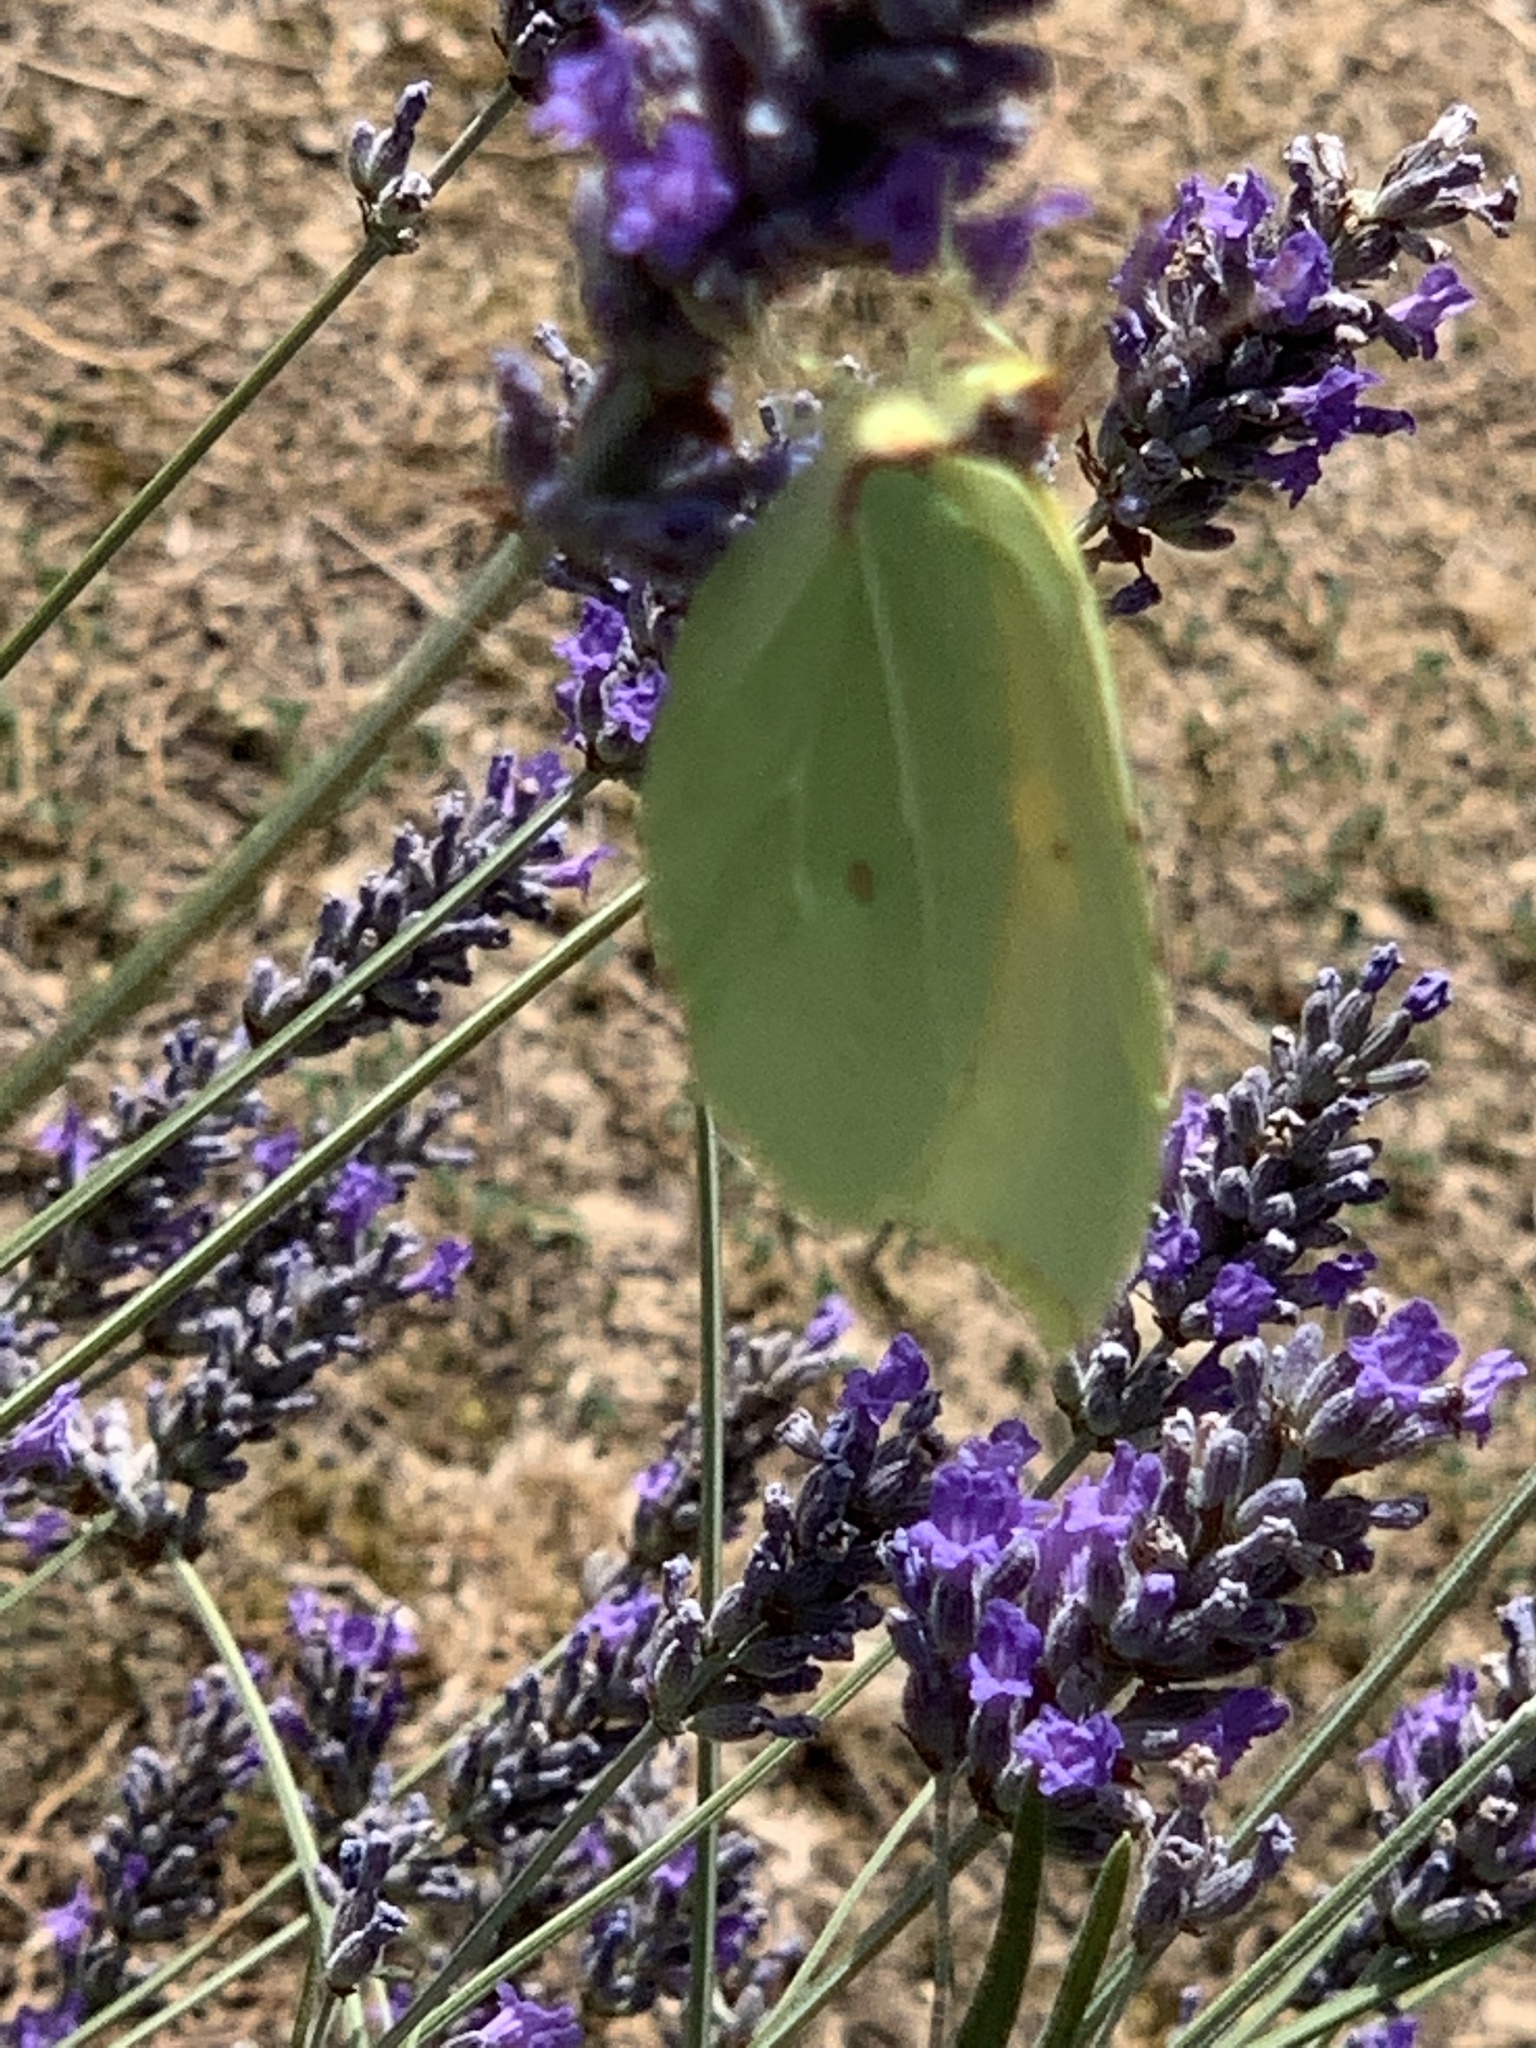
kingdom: Animalia
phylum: Arthropoda
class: Insecta
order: Lepidoptera
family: Pieridae
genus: Gonepteryx
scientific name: Gonepteryx cleopatra
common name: Cleopatra
